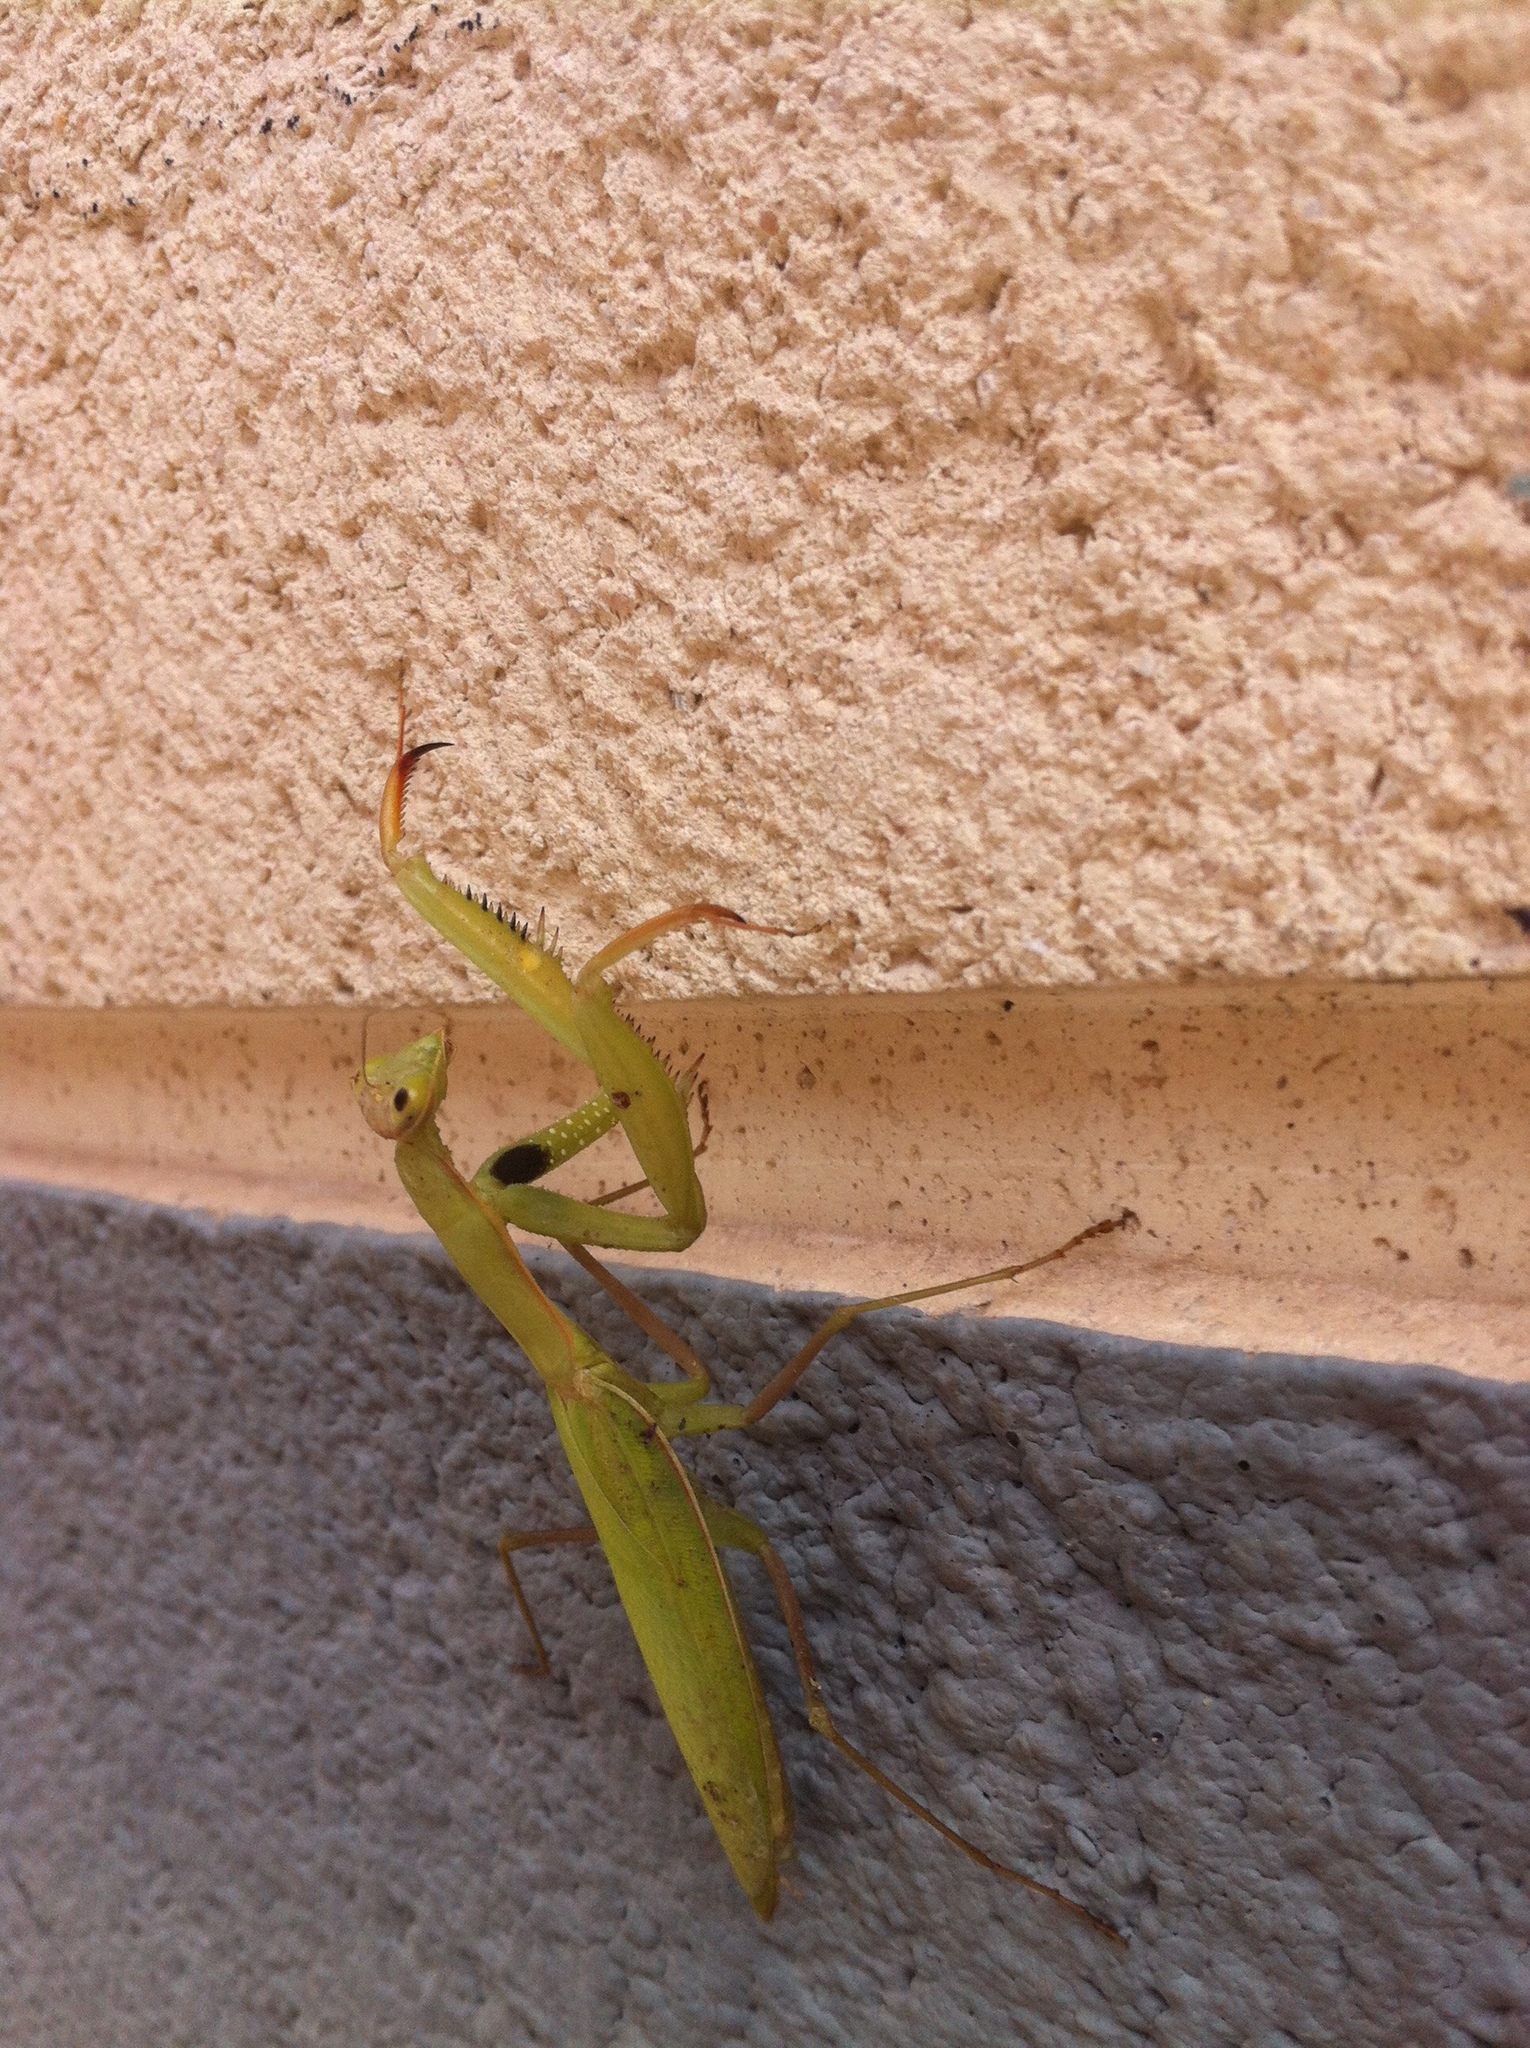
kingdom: Animalia
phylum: Arthropoda
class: Insecta
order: Mantodea
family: Mantidae
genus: Mantis
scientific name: Mantis religiosa
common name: Praying mantis
